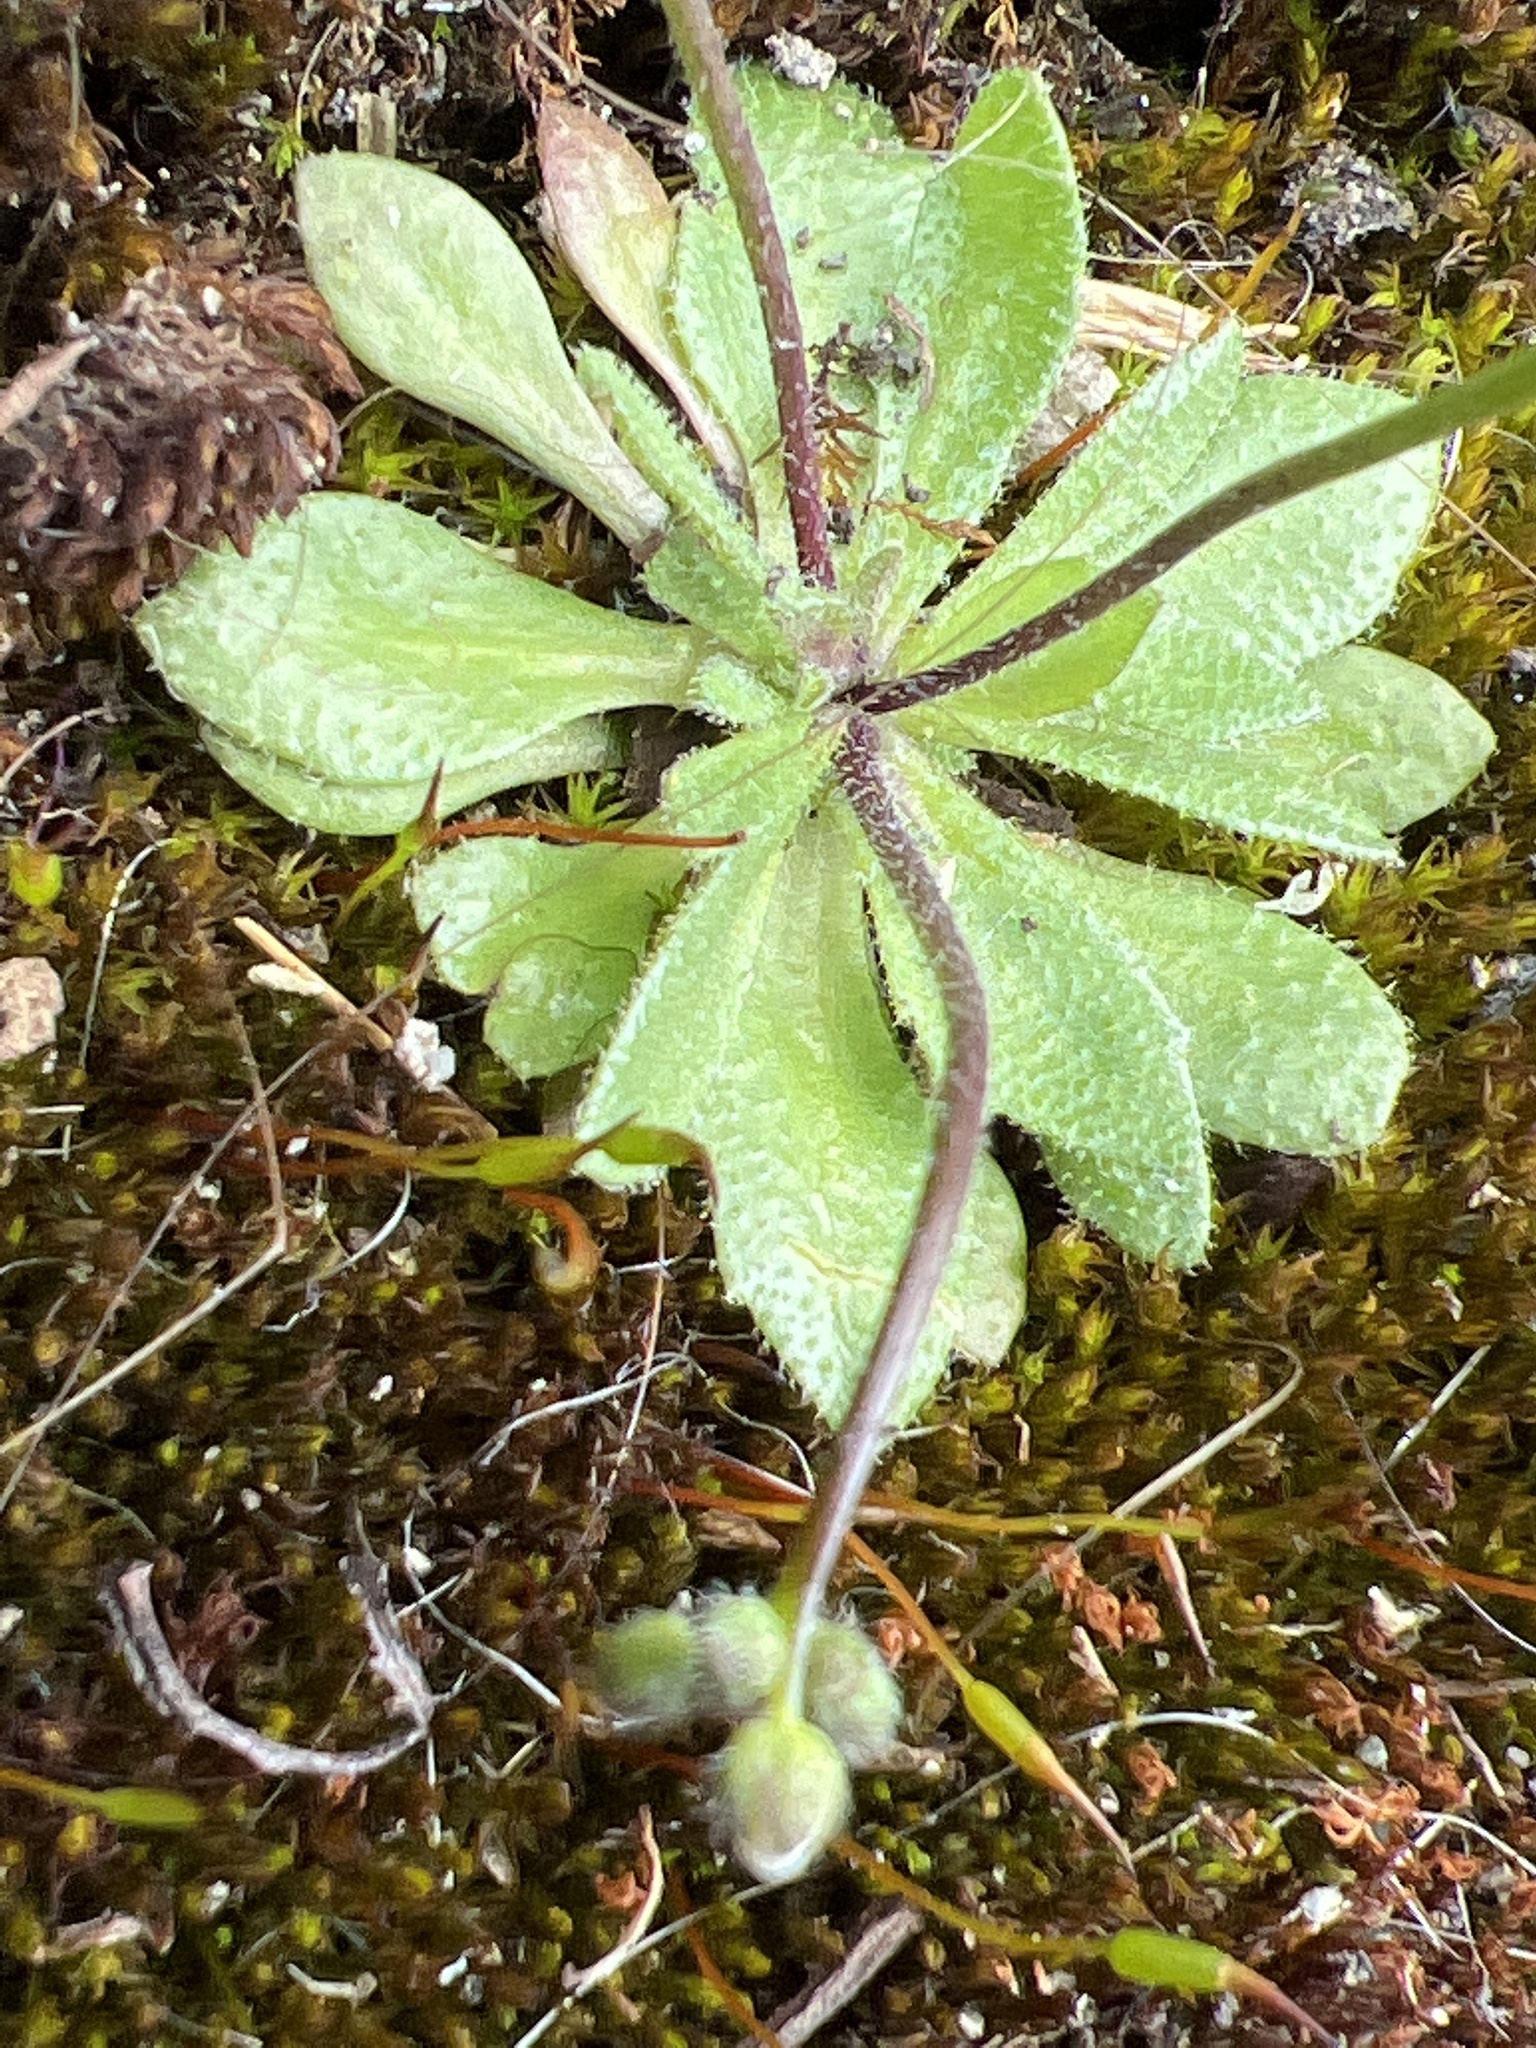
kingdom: Plantae
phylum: Tracheophyta
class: Magnoliopsida
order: Brassicales
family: Brassicaceae
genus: Draba
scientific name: Draba verna
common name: Spring draba
